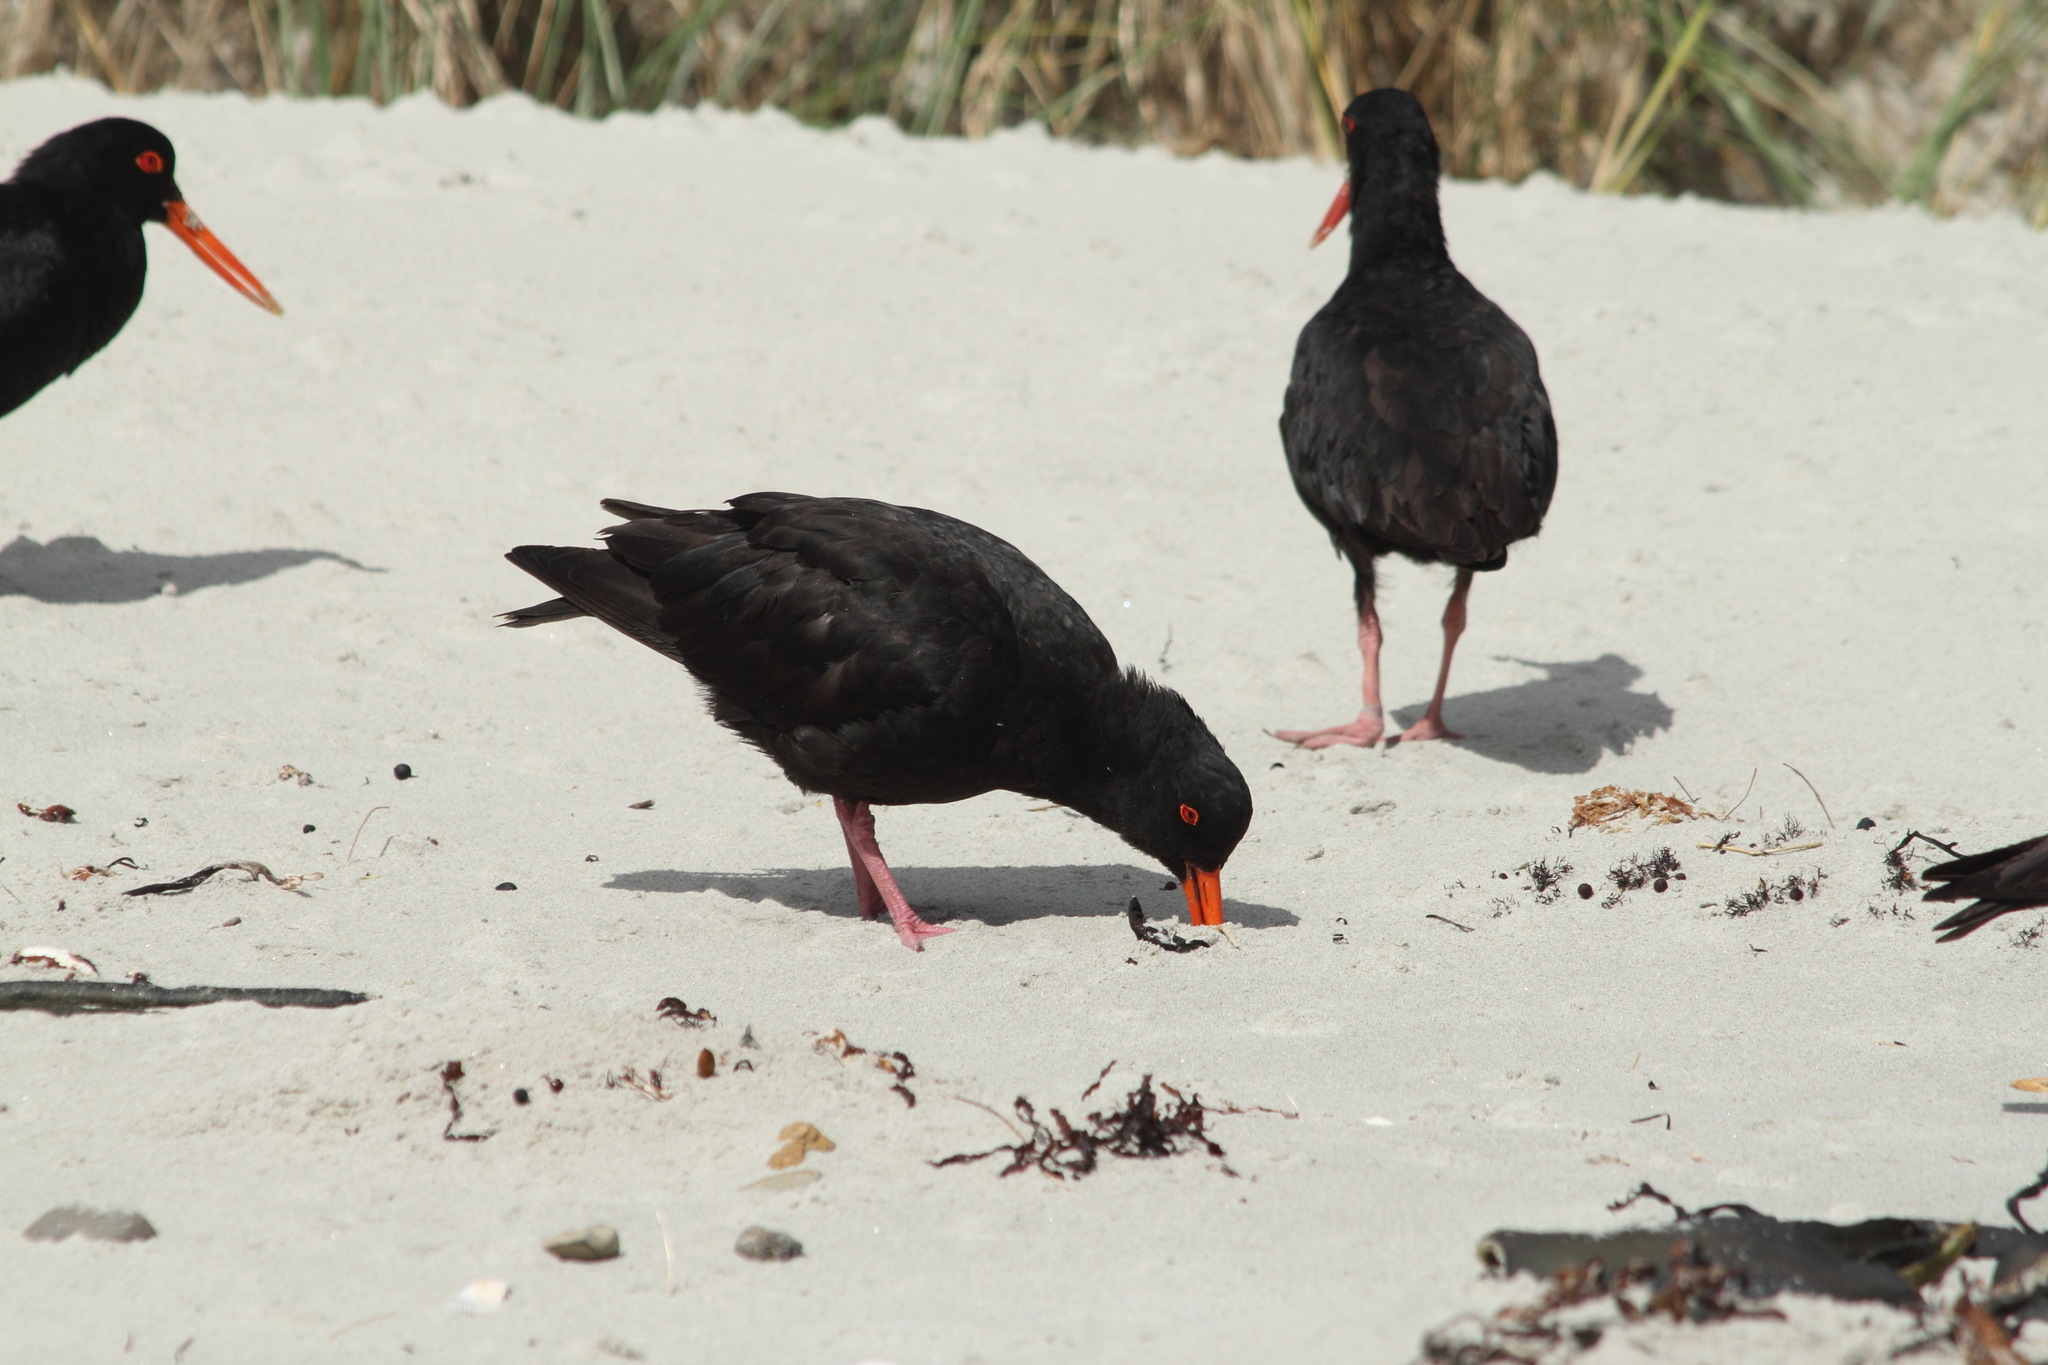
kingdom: Animalia
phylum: Chordata
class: Aves
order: Charadriiformes
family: Haematopodidae
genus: Haematopus
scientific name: Haematopus unicolor
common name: Variable oystercatcher
